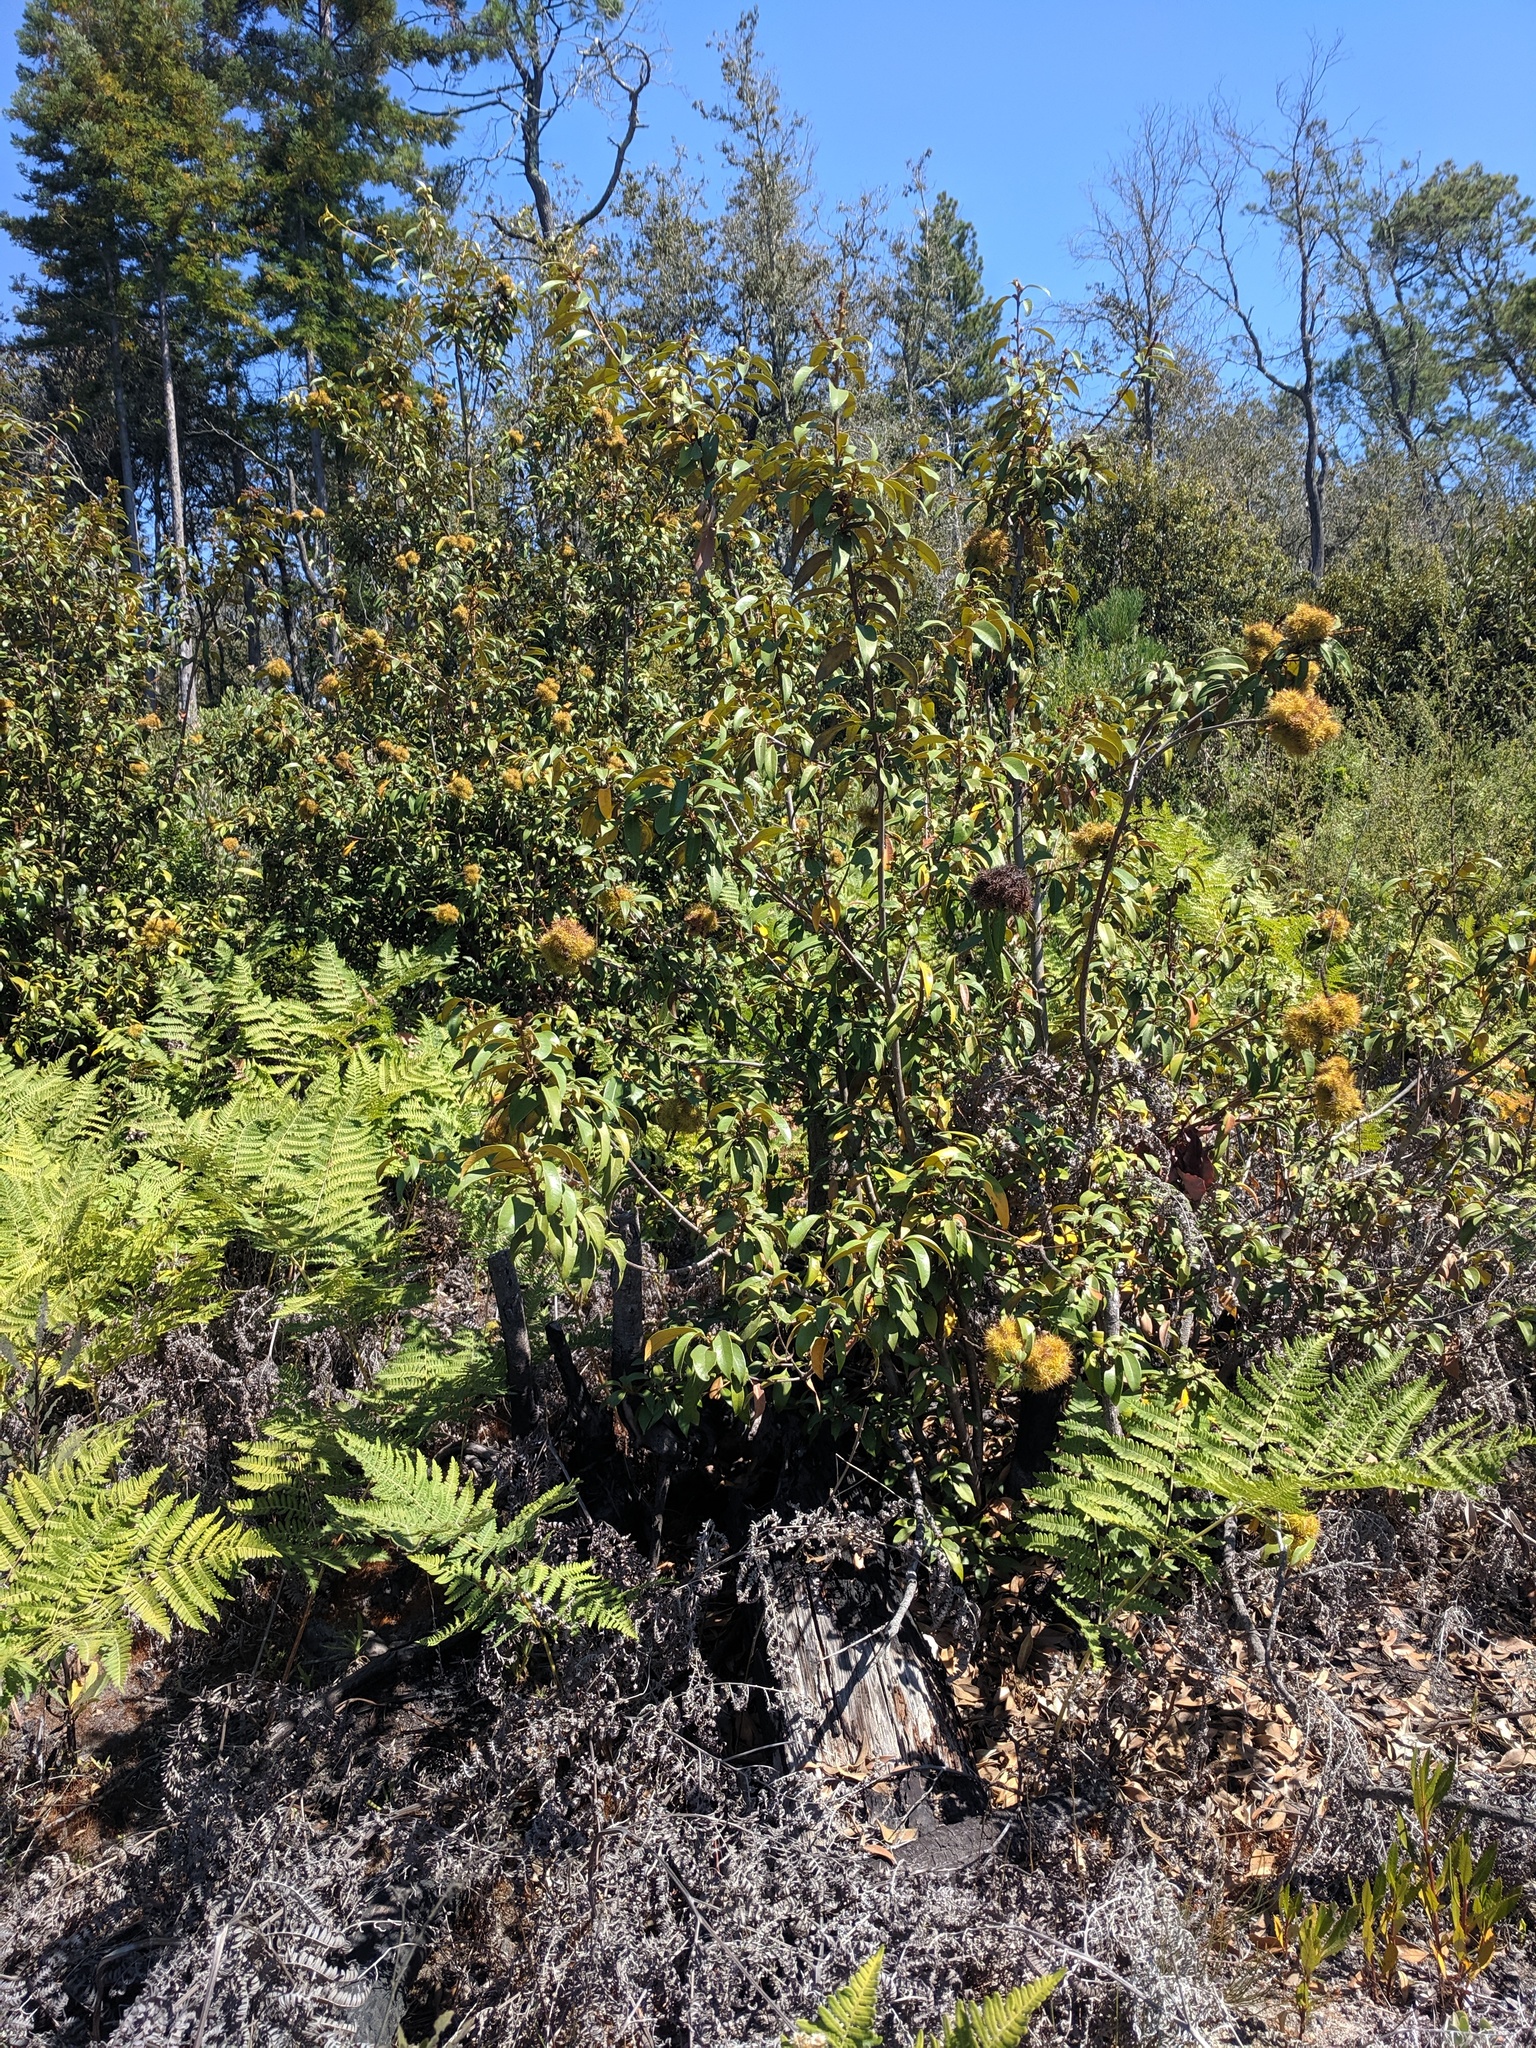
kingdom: Plantae
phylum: Tracheophyta
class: Magnoliopsida
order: Fagales
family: Fagaceae
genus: Chrysolepis
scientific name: Chrysolepis chrysophylla
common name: Giant chinquapin
